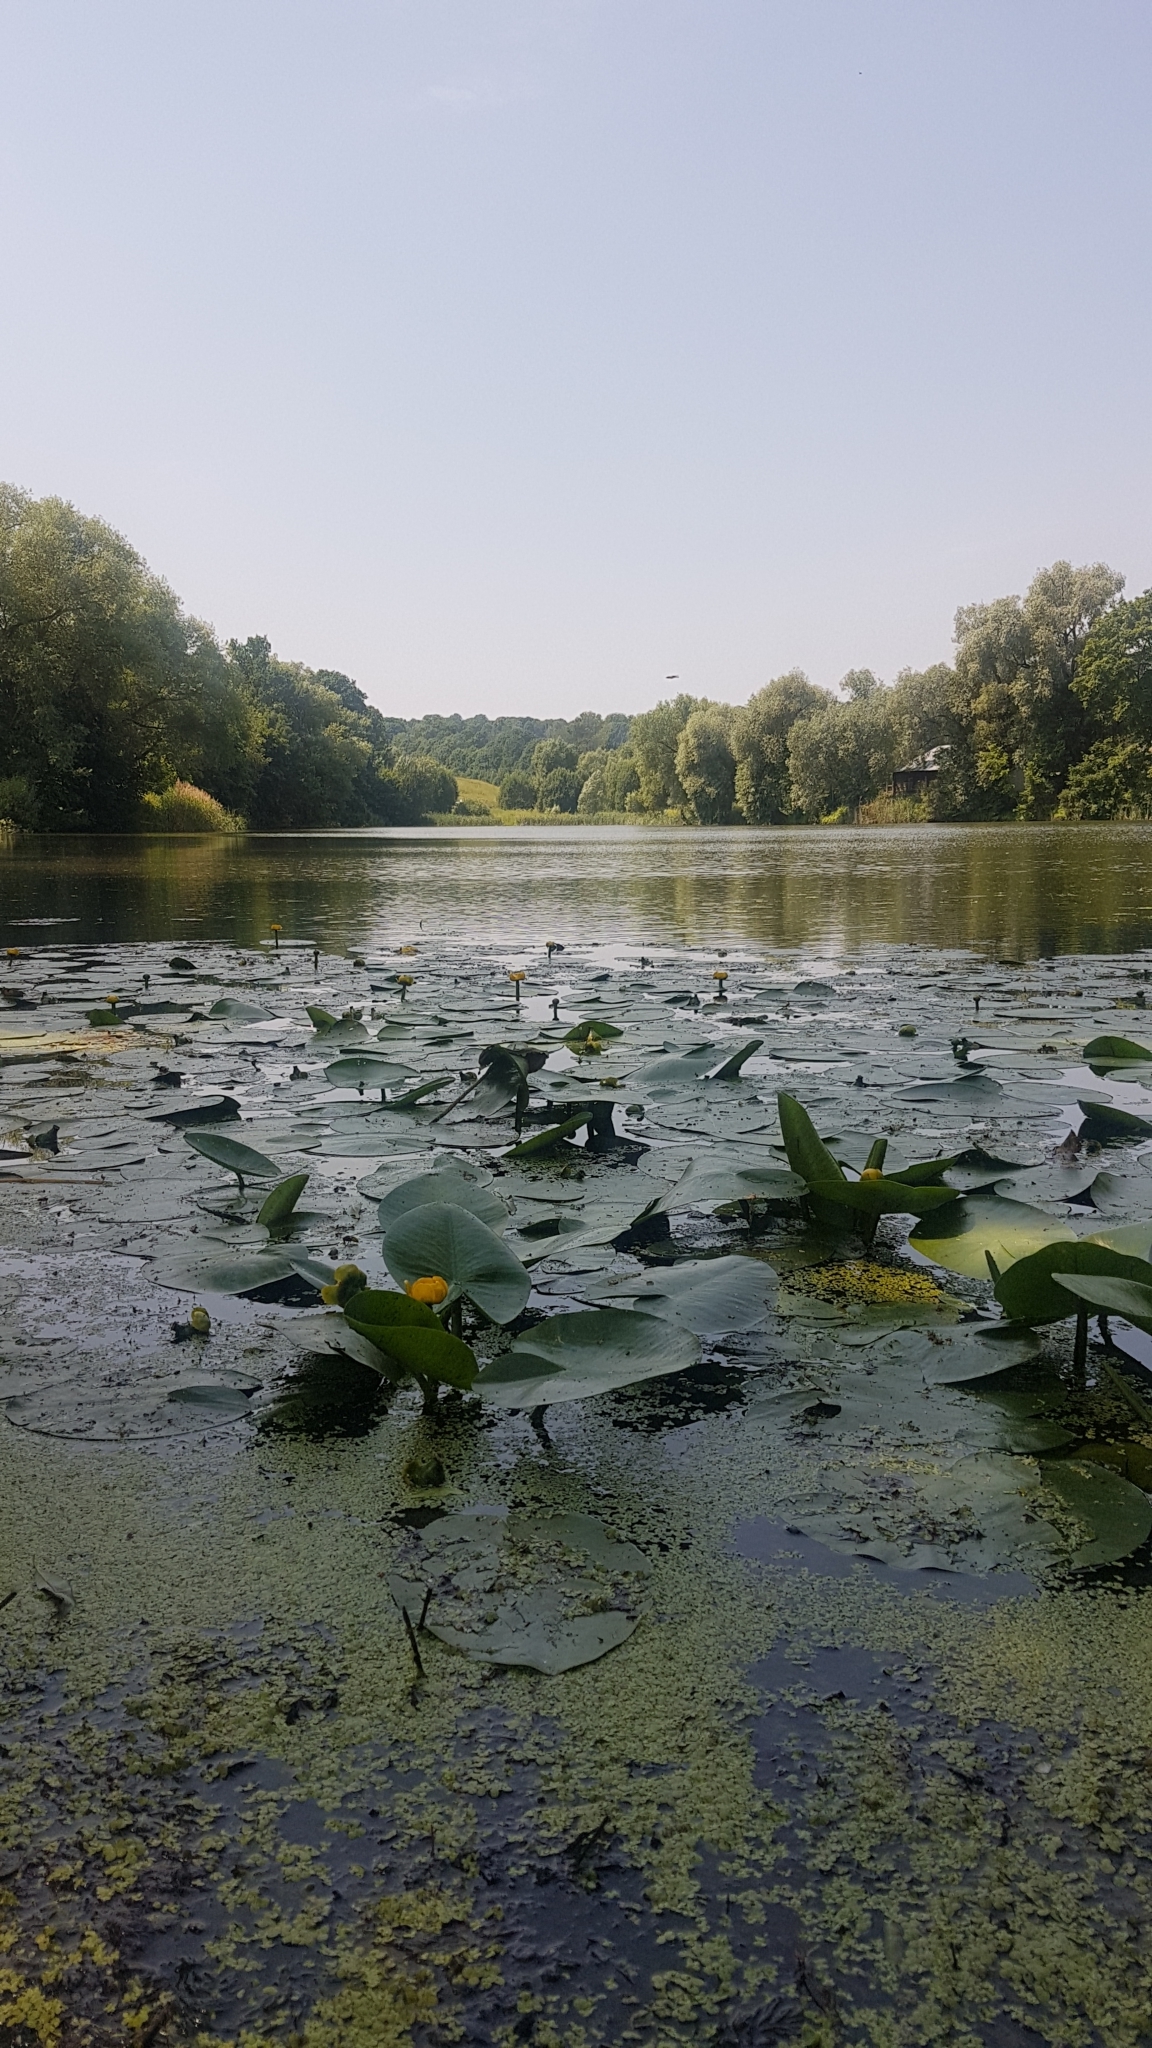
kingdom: Plantae
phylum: Tracheophyta
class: Magnoliopsida
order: Nymphaeales
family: Nymphaeaceae
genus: Nuphar
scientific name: Nuphar lutea
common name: Yellow water-lily
